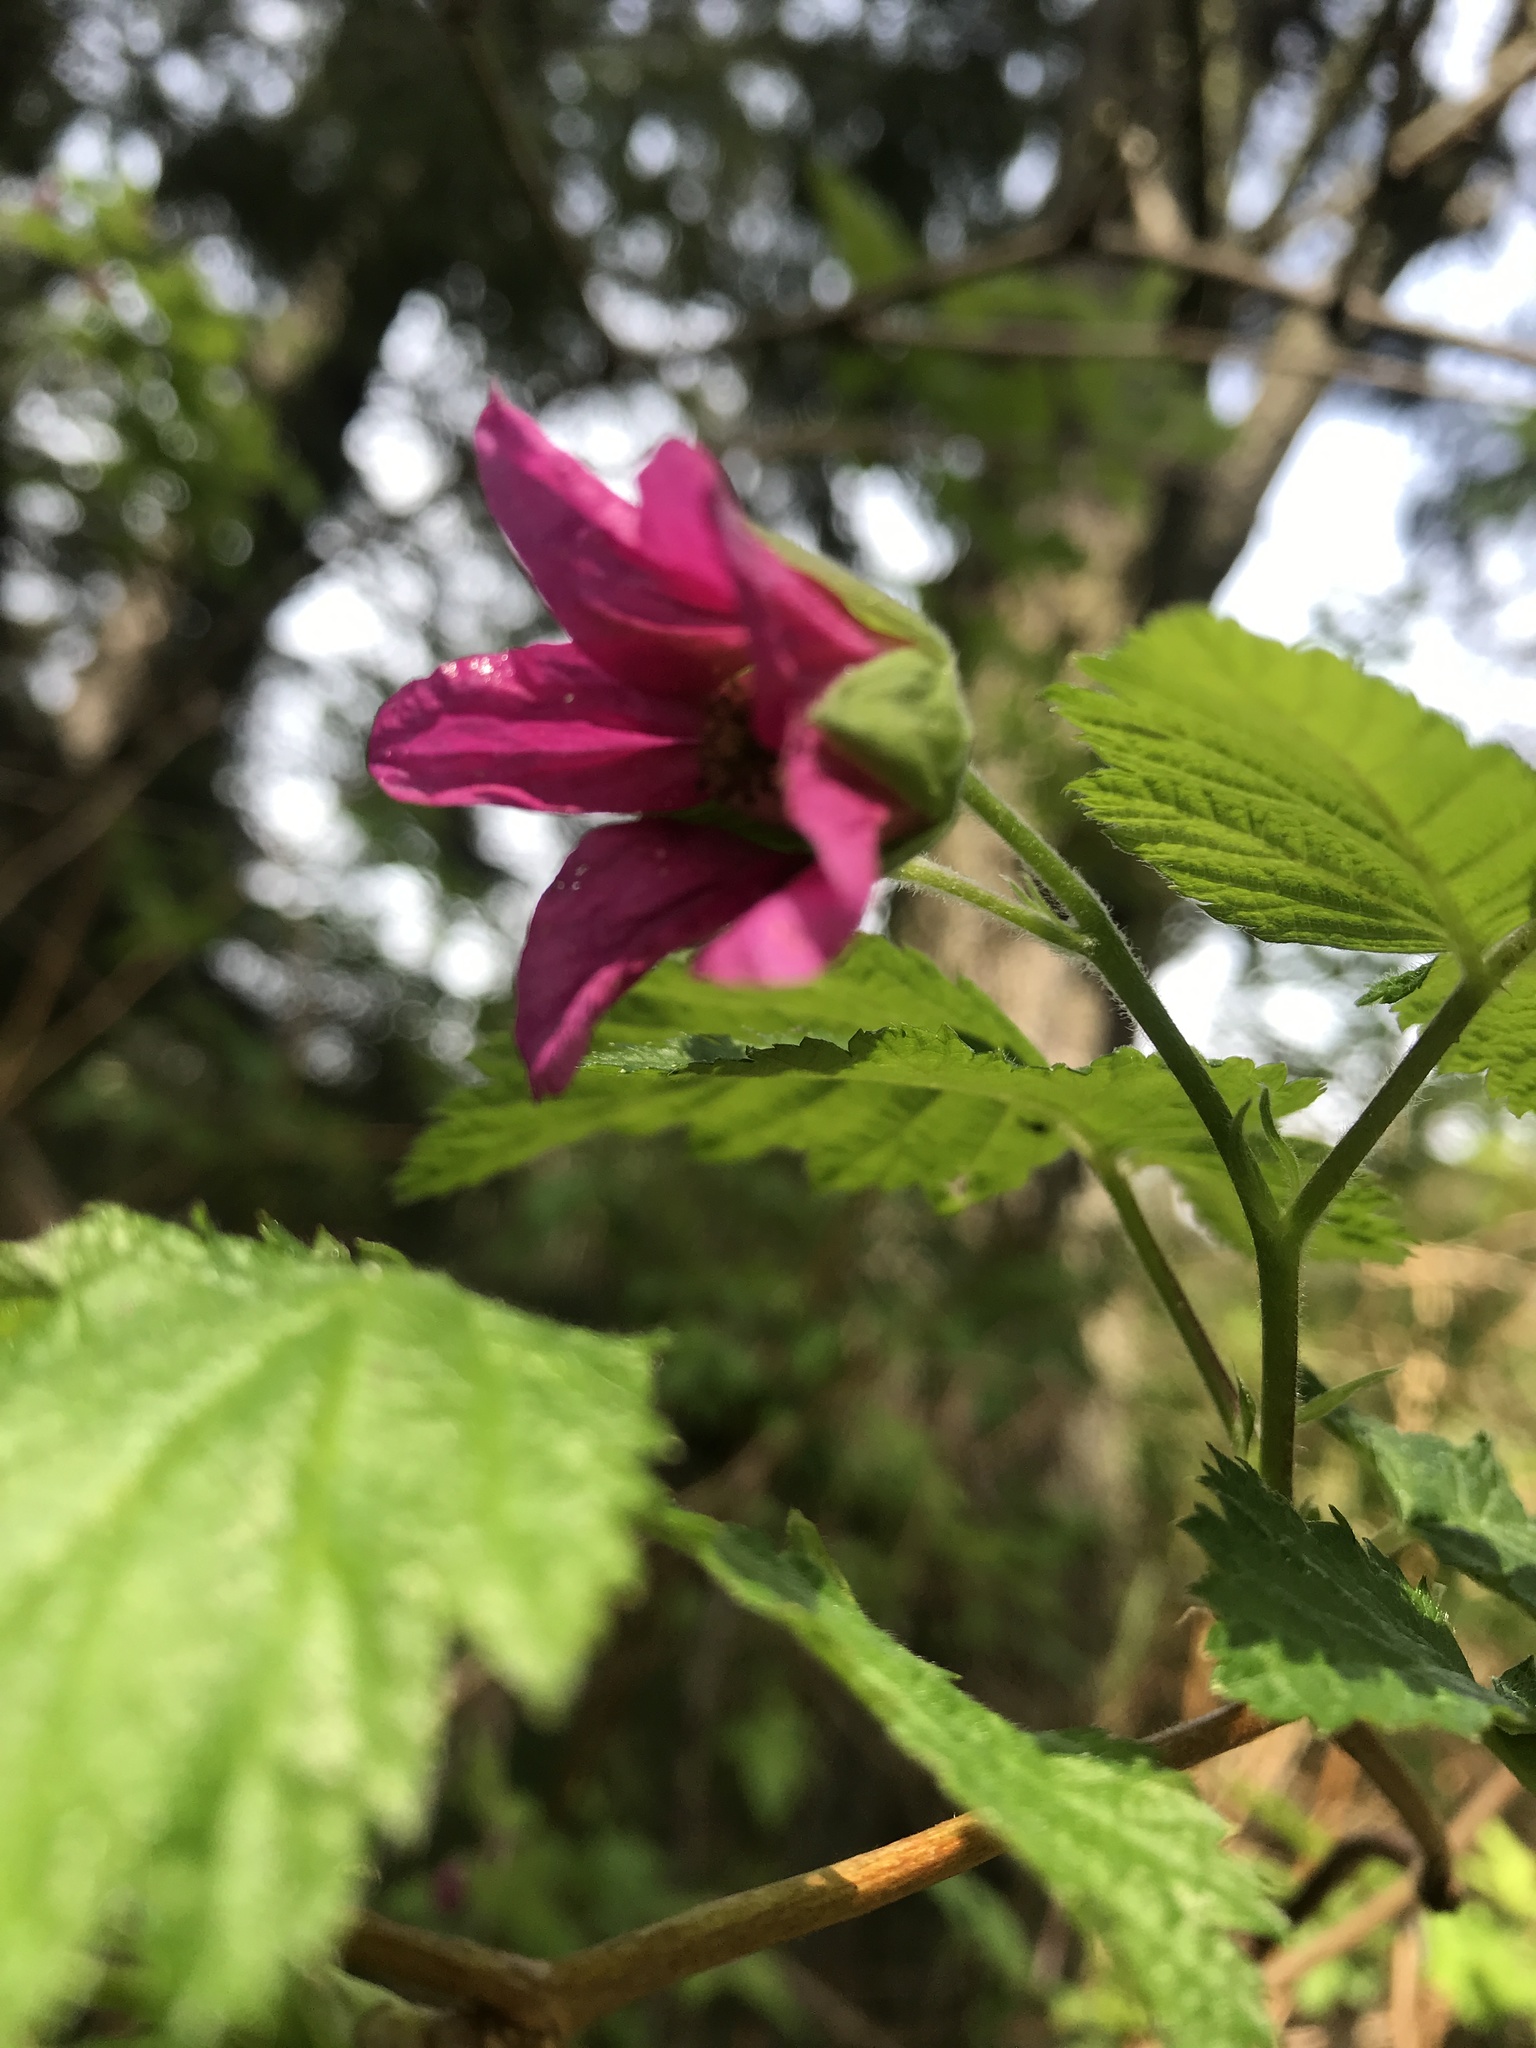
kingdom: Plantae
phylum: Tracheophyta
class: Magnoliopsida
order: Rosales
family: Rosaceae
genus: Rubus
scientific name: Rubus spectabilis
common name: Salmonberry
